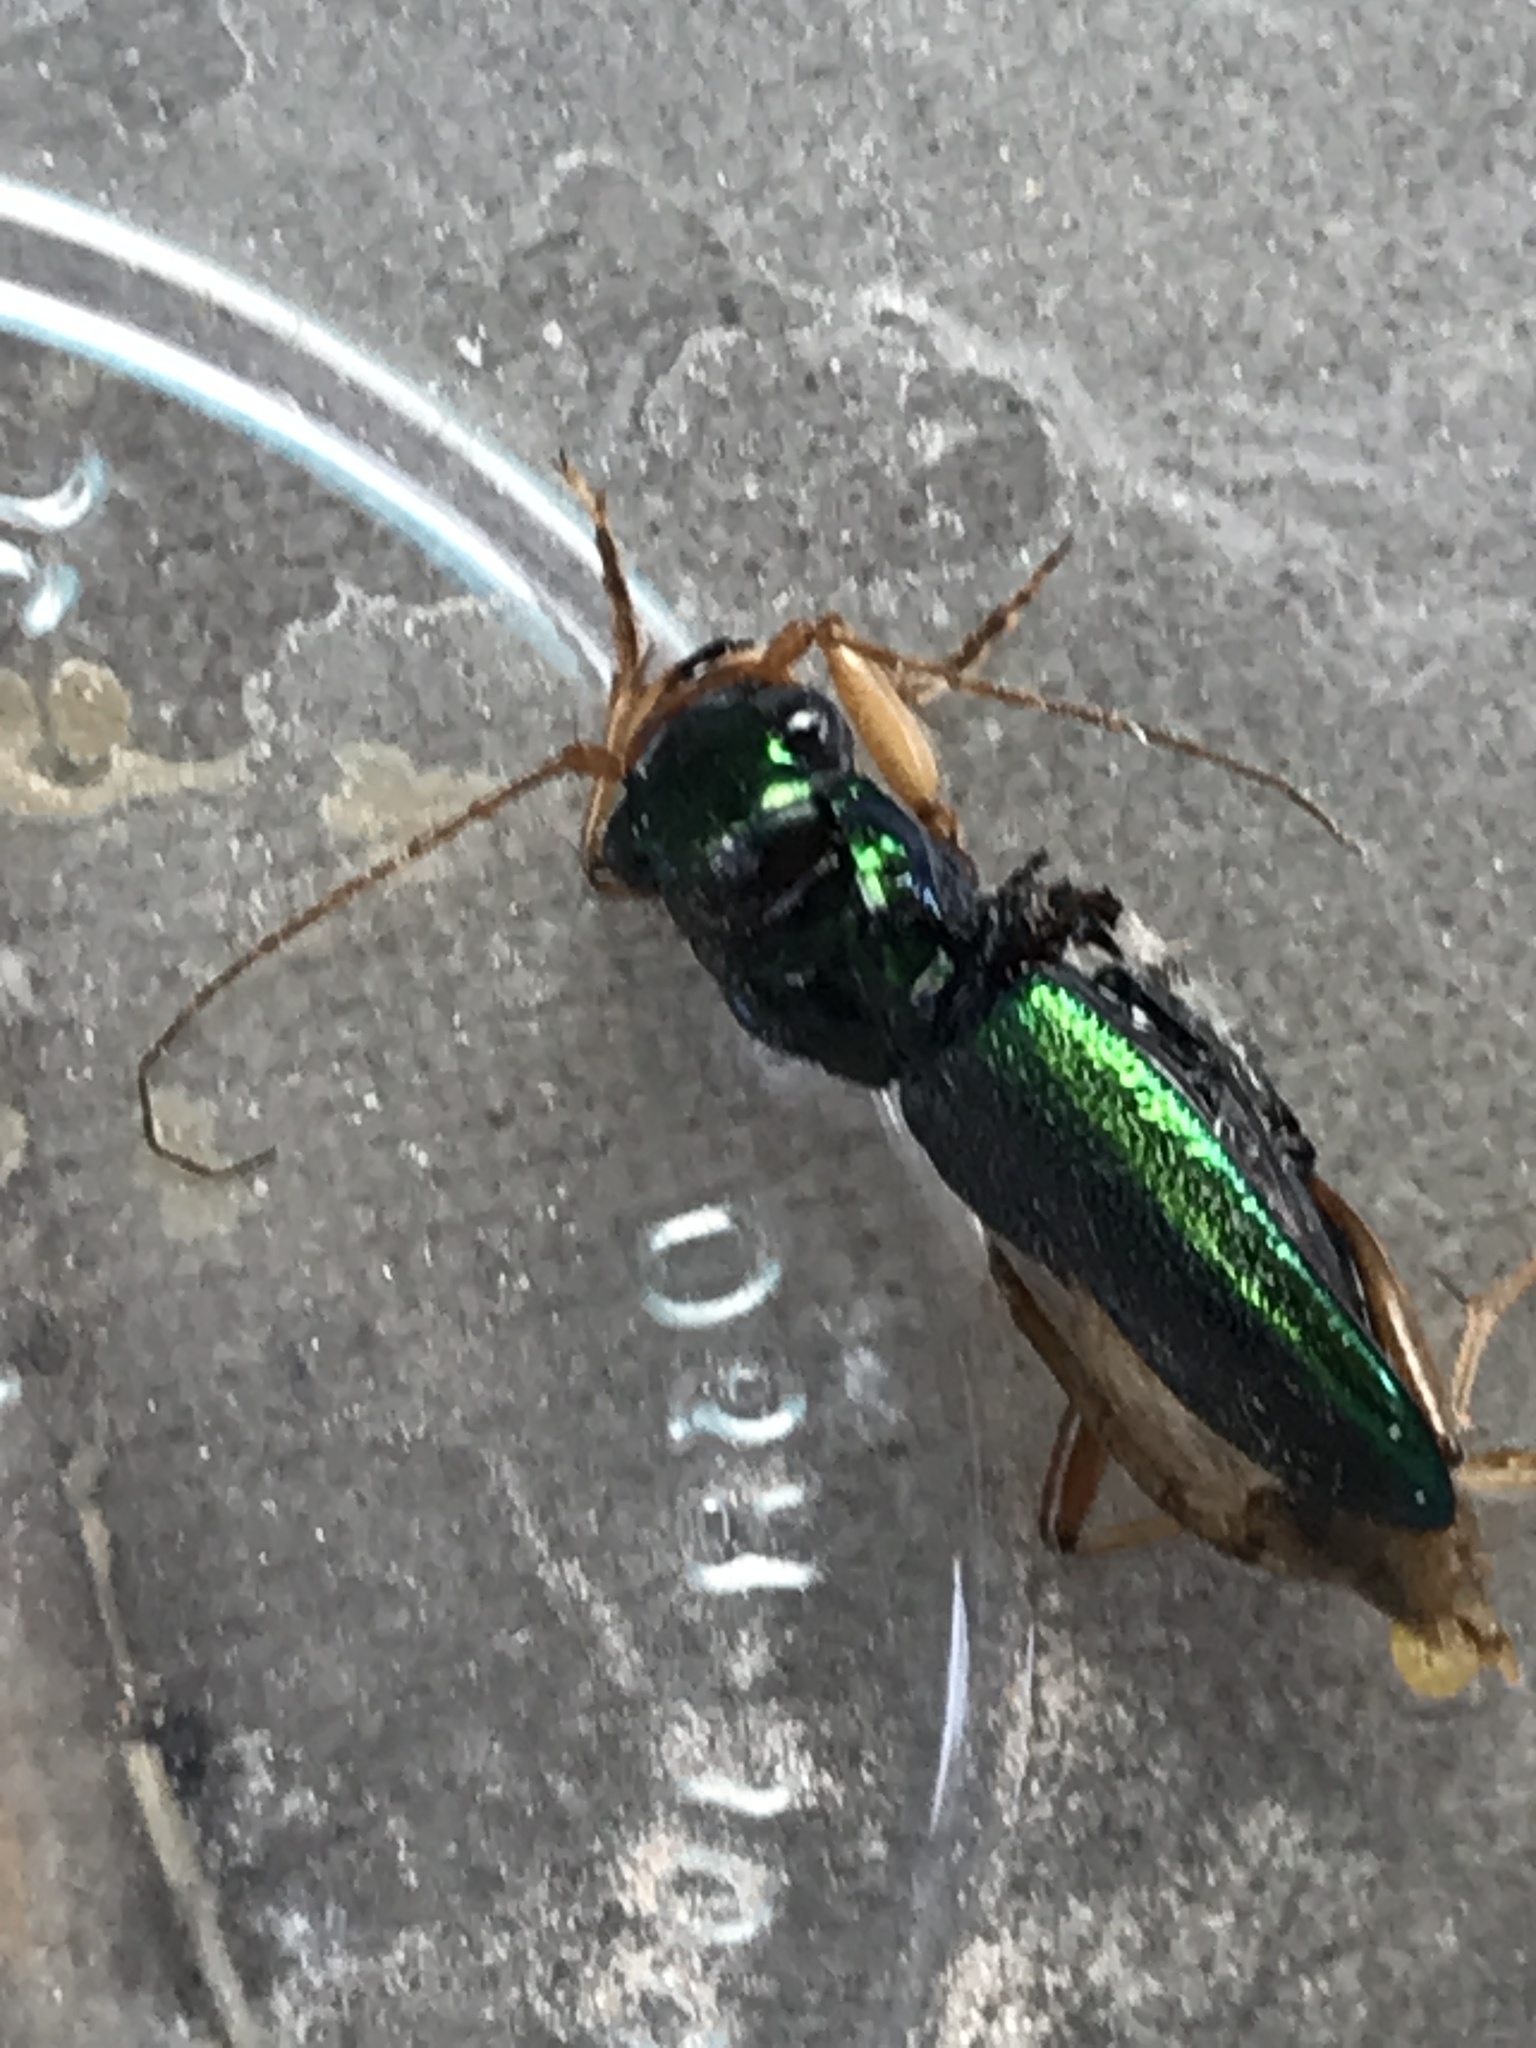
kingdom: Animalia
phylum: Arthropoda
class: Insecta
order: Coleoptera
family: Carabidae
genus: Tetracha
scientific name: Tetracha virginica
